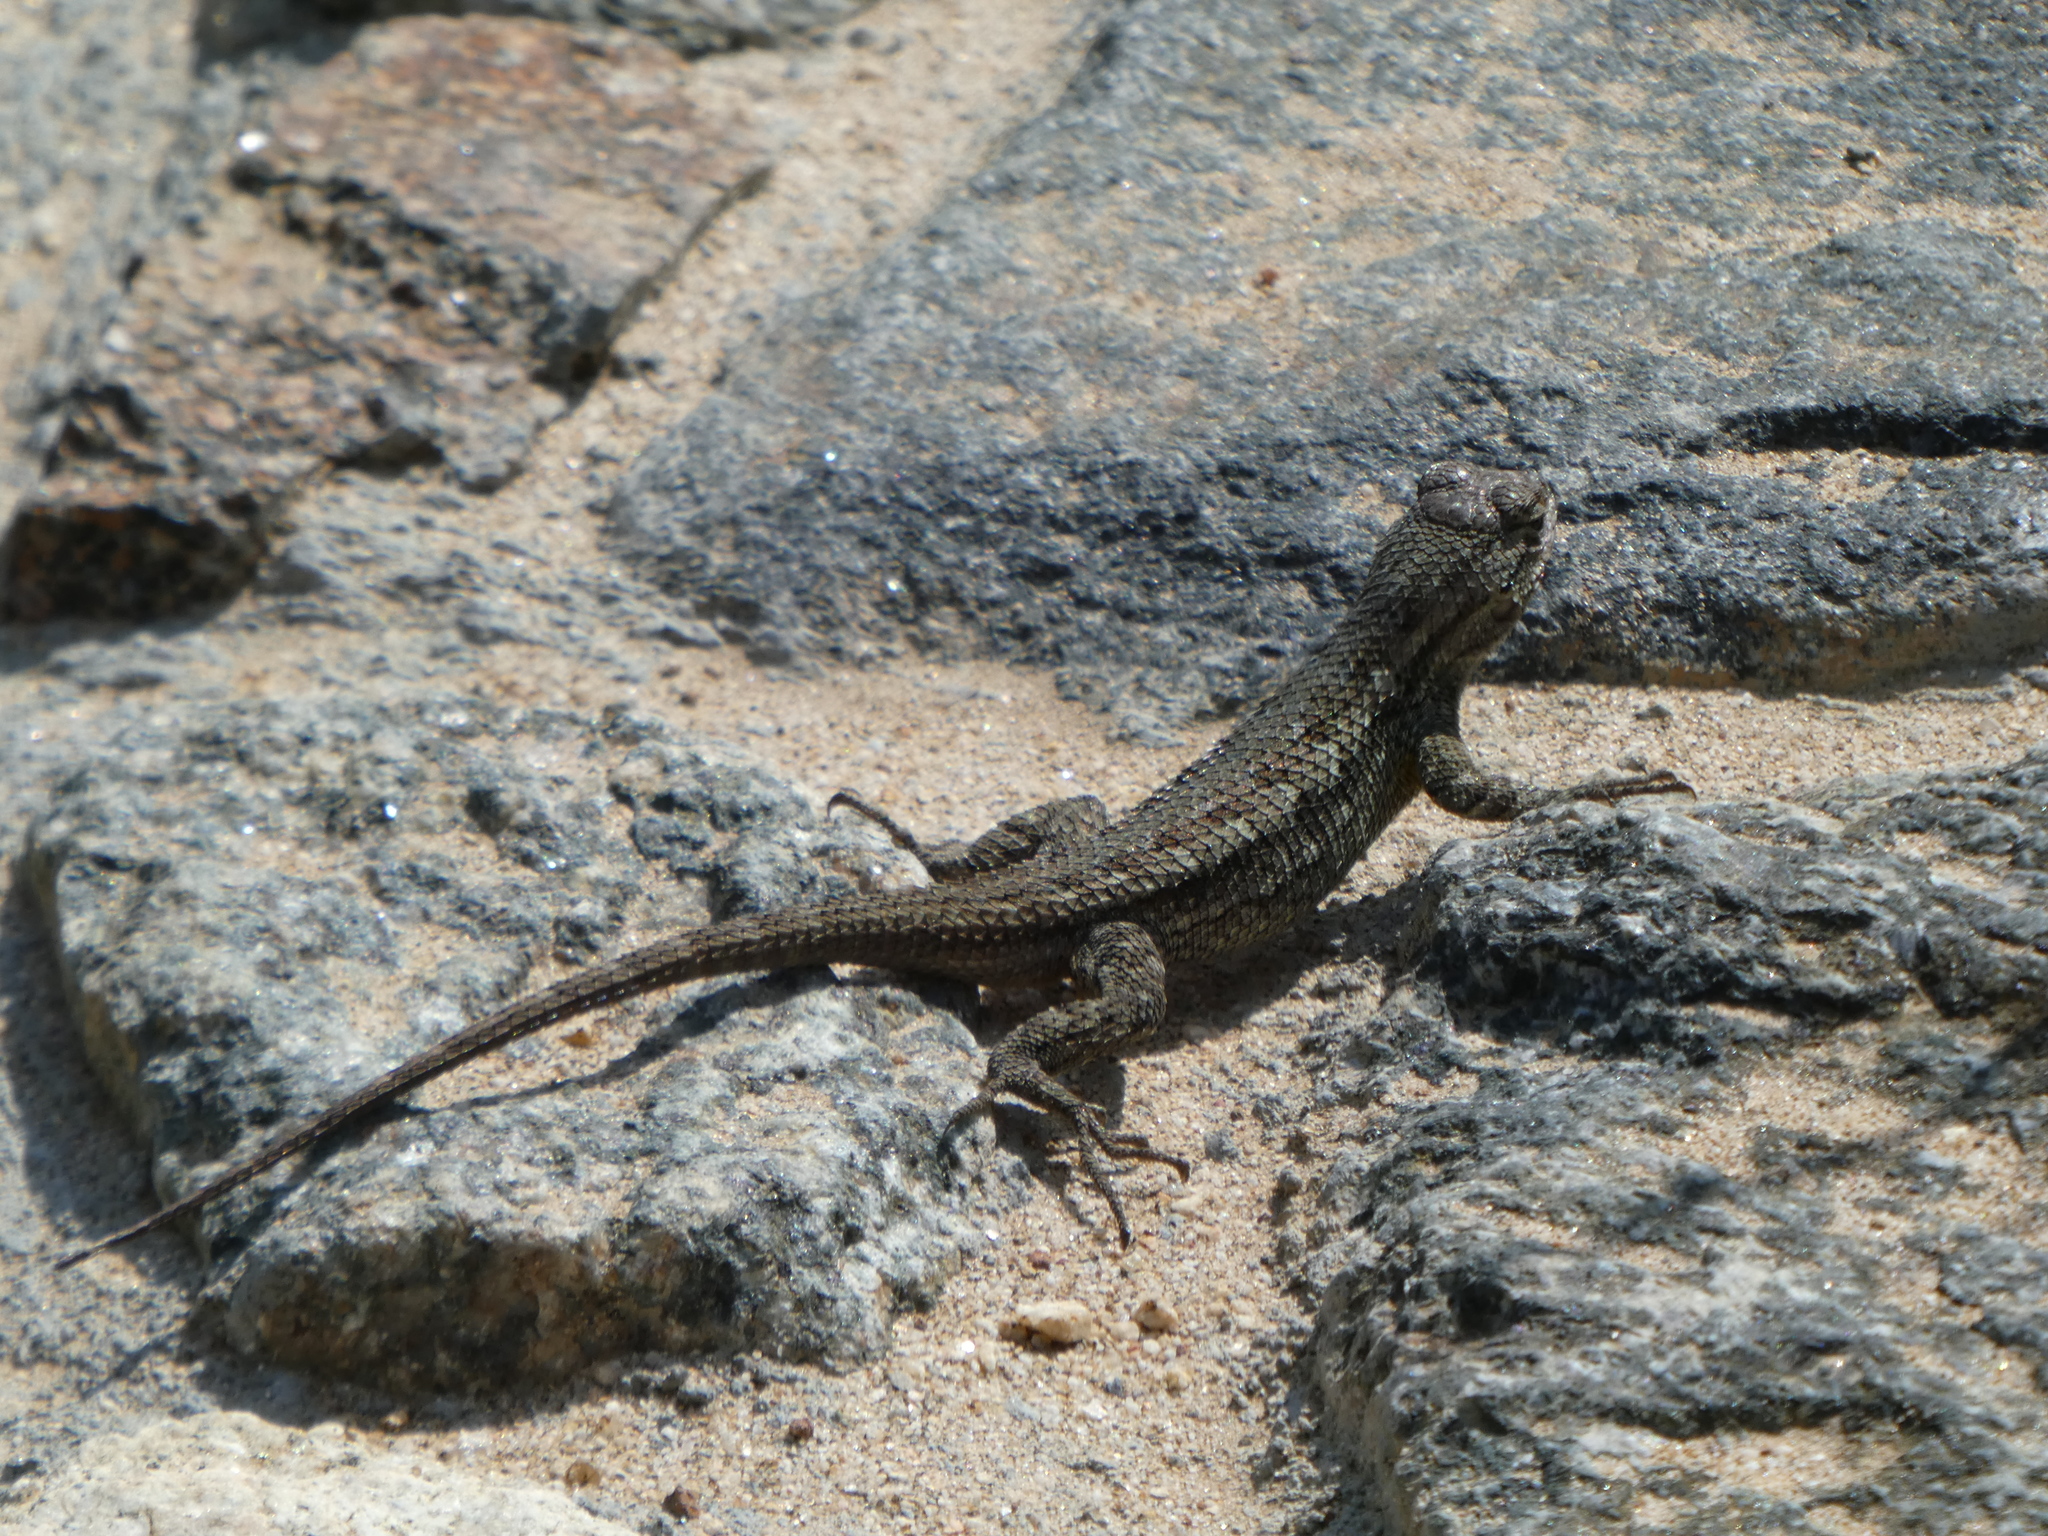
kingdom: Animalia
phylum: Chordata
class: Squamata
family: Phrynosomatidae
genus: Sceloporus
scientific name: Sceloporus occidentalis
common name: Western fence lizard
